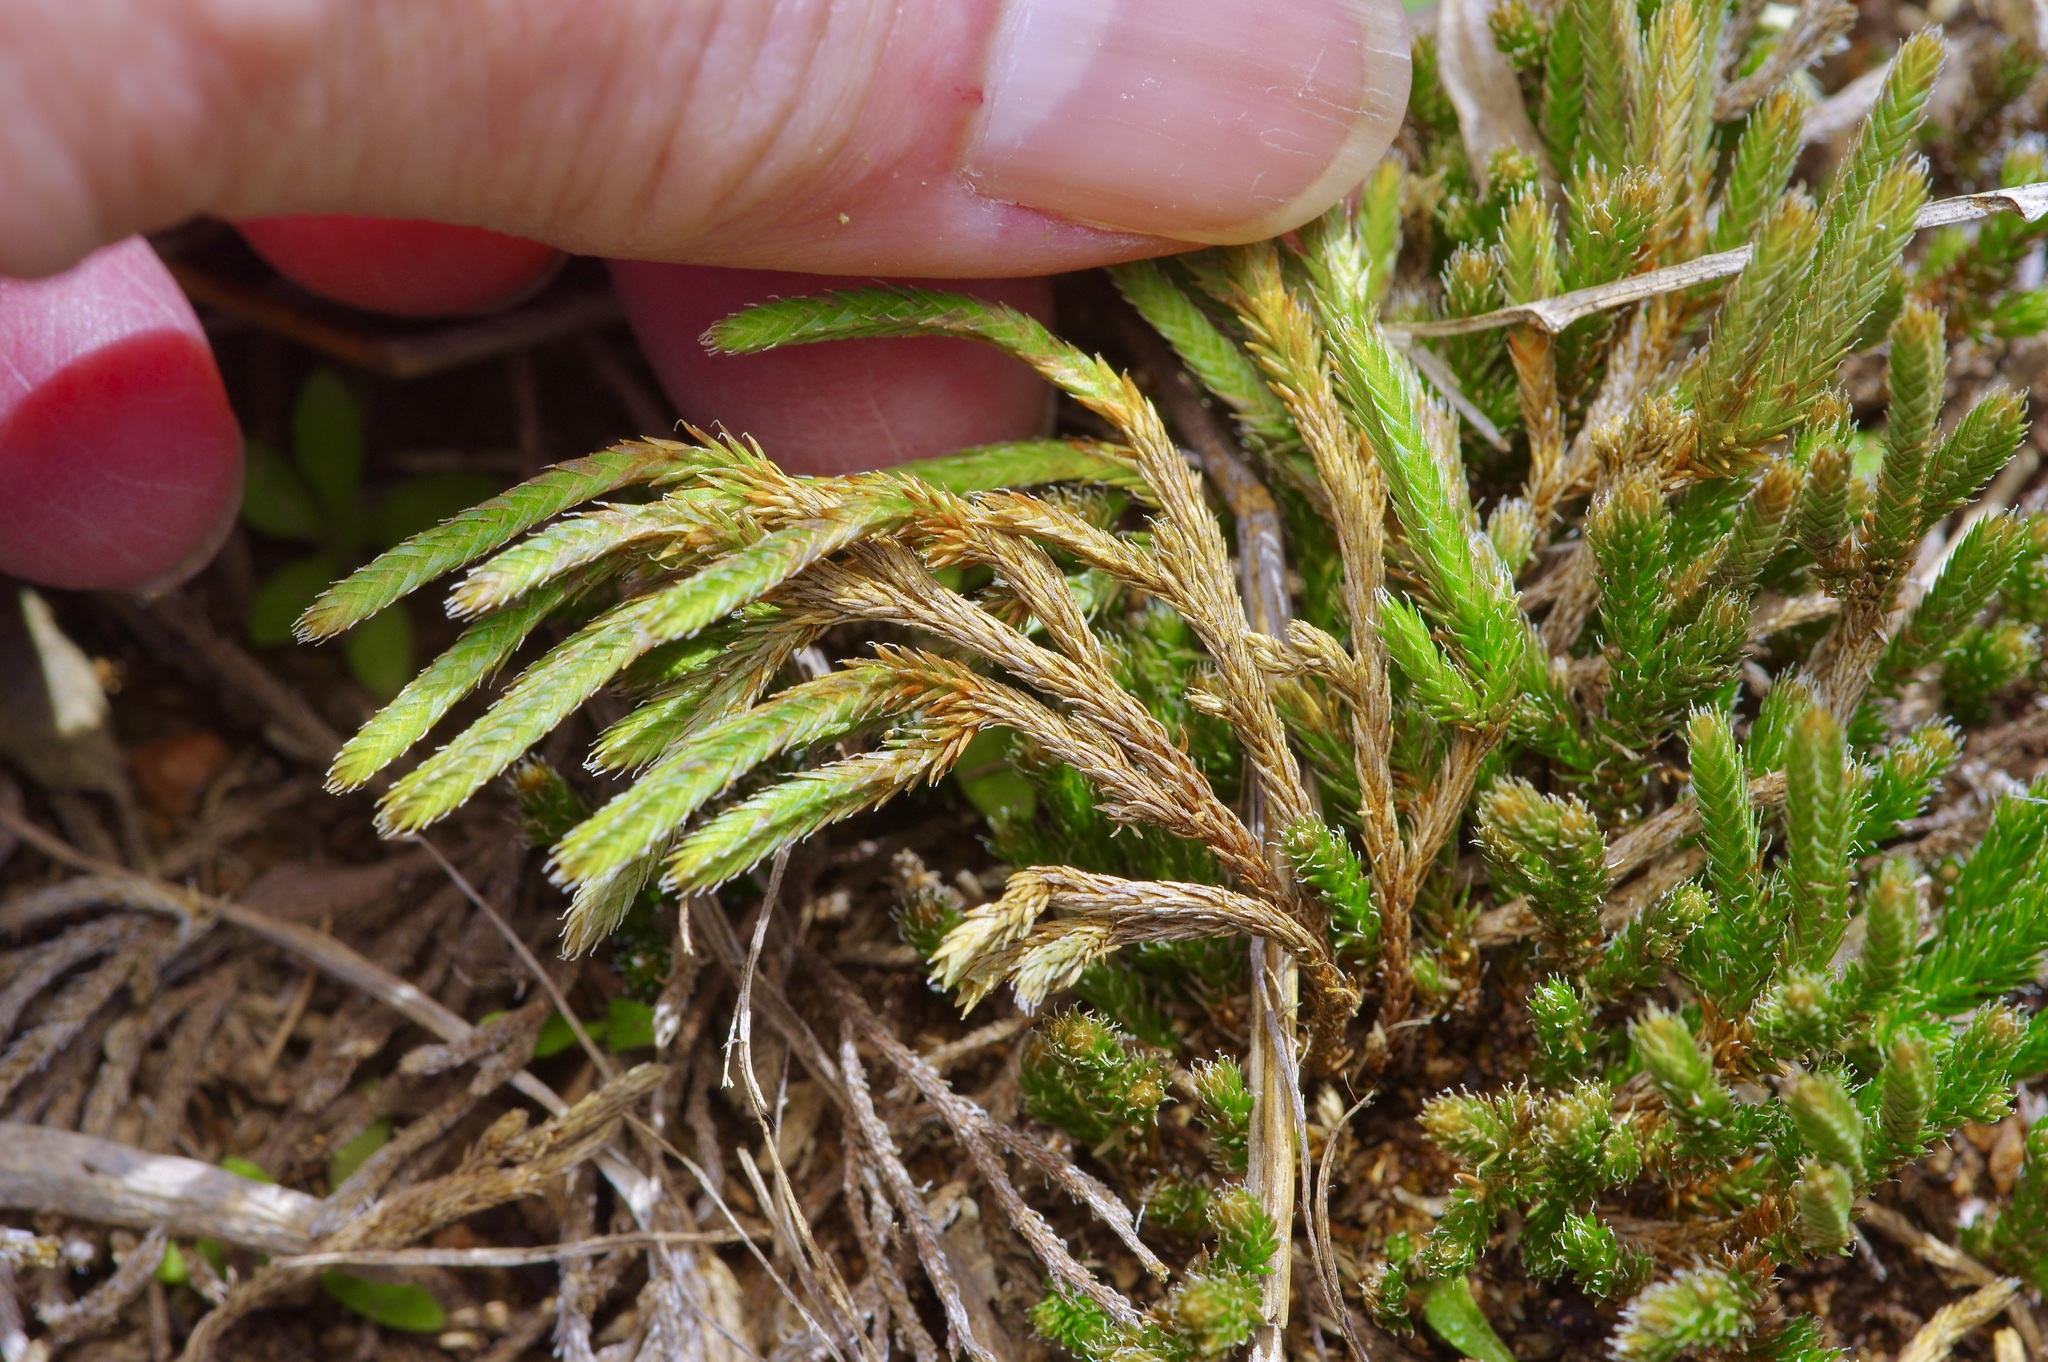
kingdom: Plantae
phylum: Tracheophyta
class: Lycopodiopsida
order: Selaginellales
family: Selaginellaceae
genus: Selaginella
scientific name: Selaginella corallina
